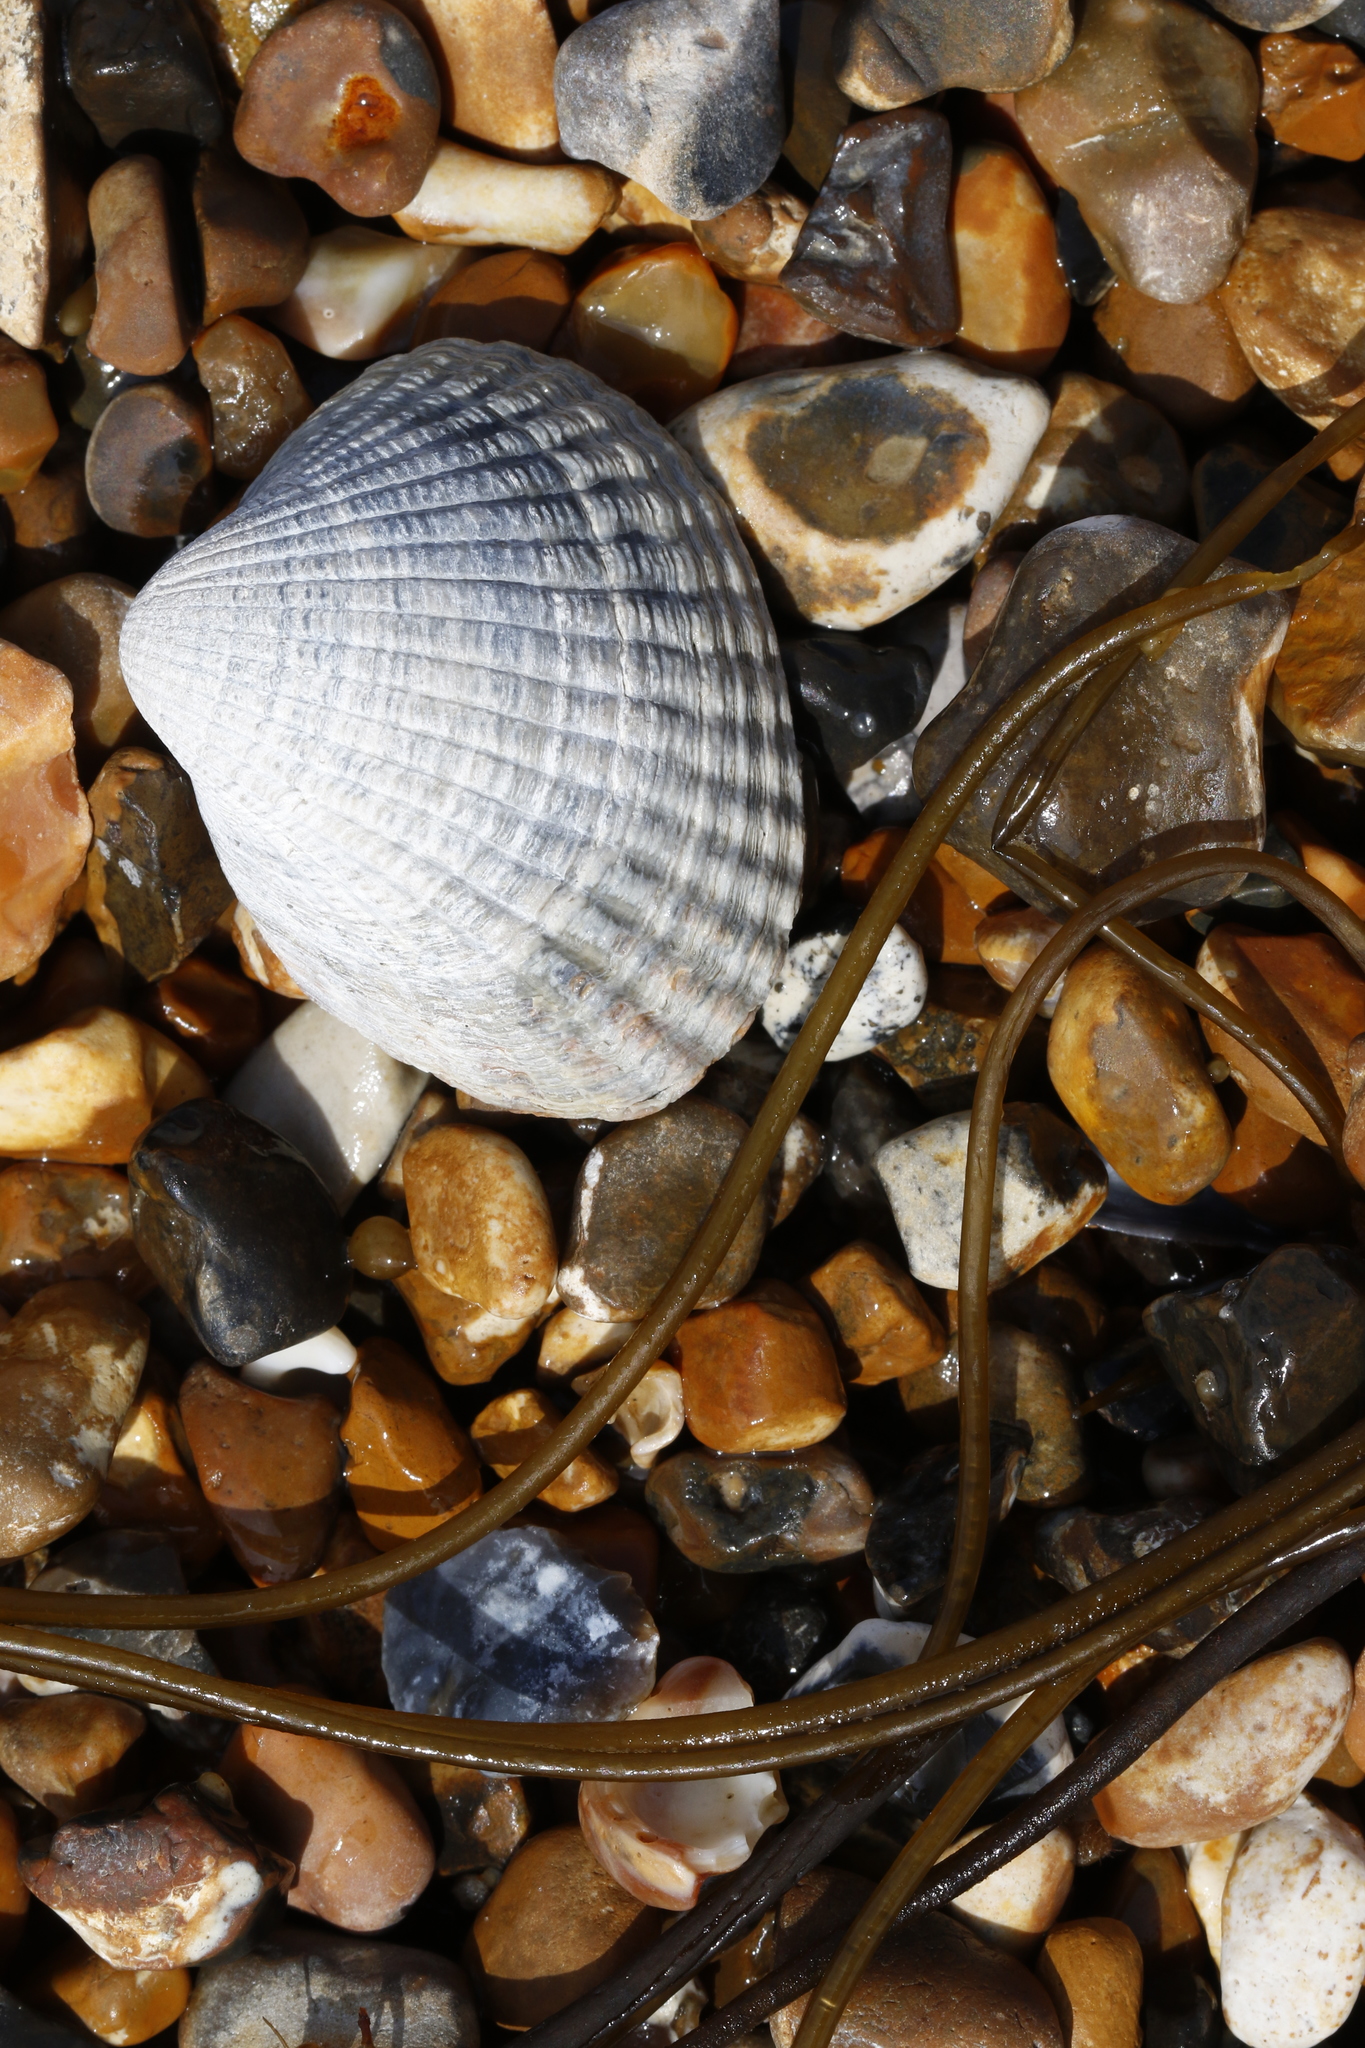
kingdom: Animalia
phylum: Mollusca
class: Bivalvia
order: Cardiida
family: Cardiidae
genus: Cerastoderma
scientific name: Cerastoderma edule
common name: Common cockle
